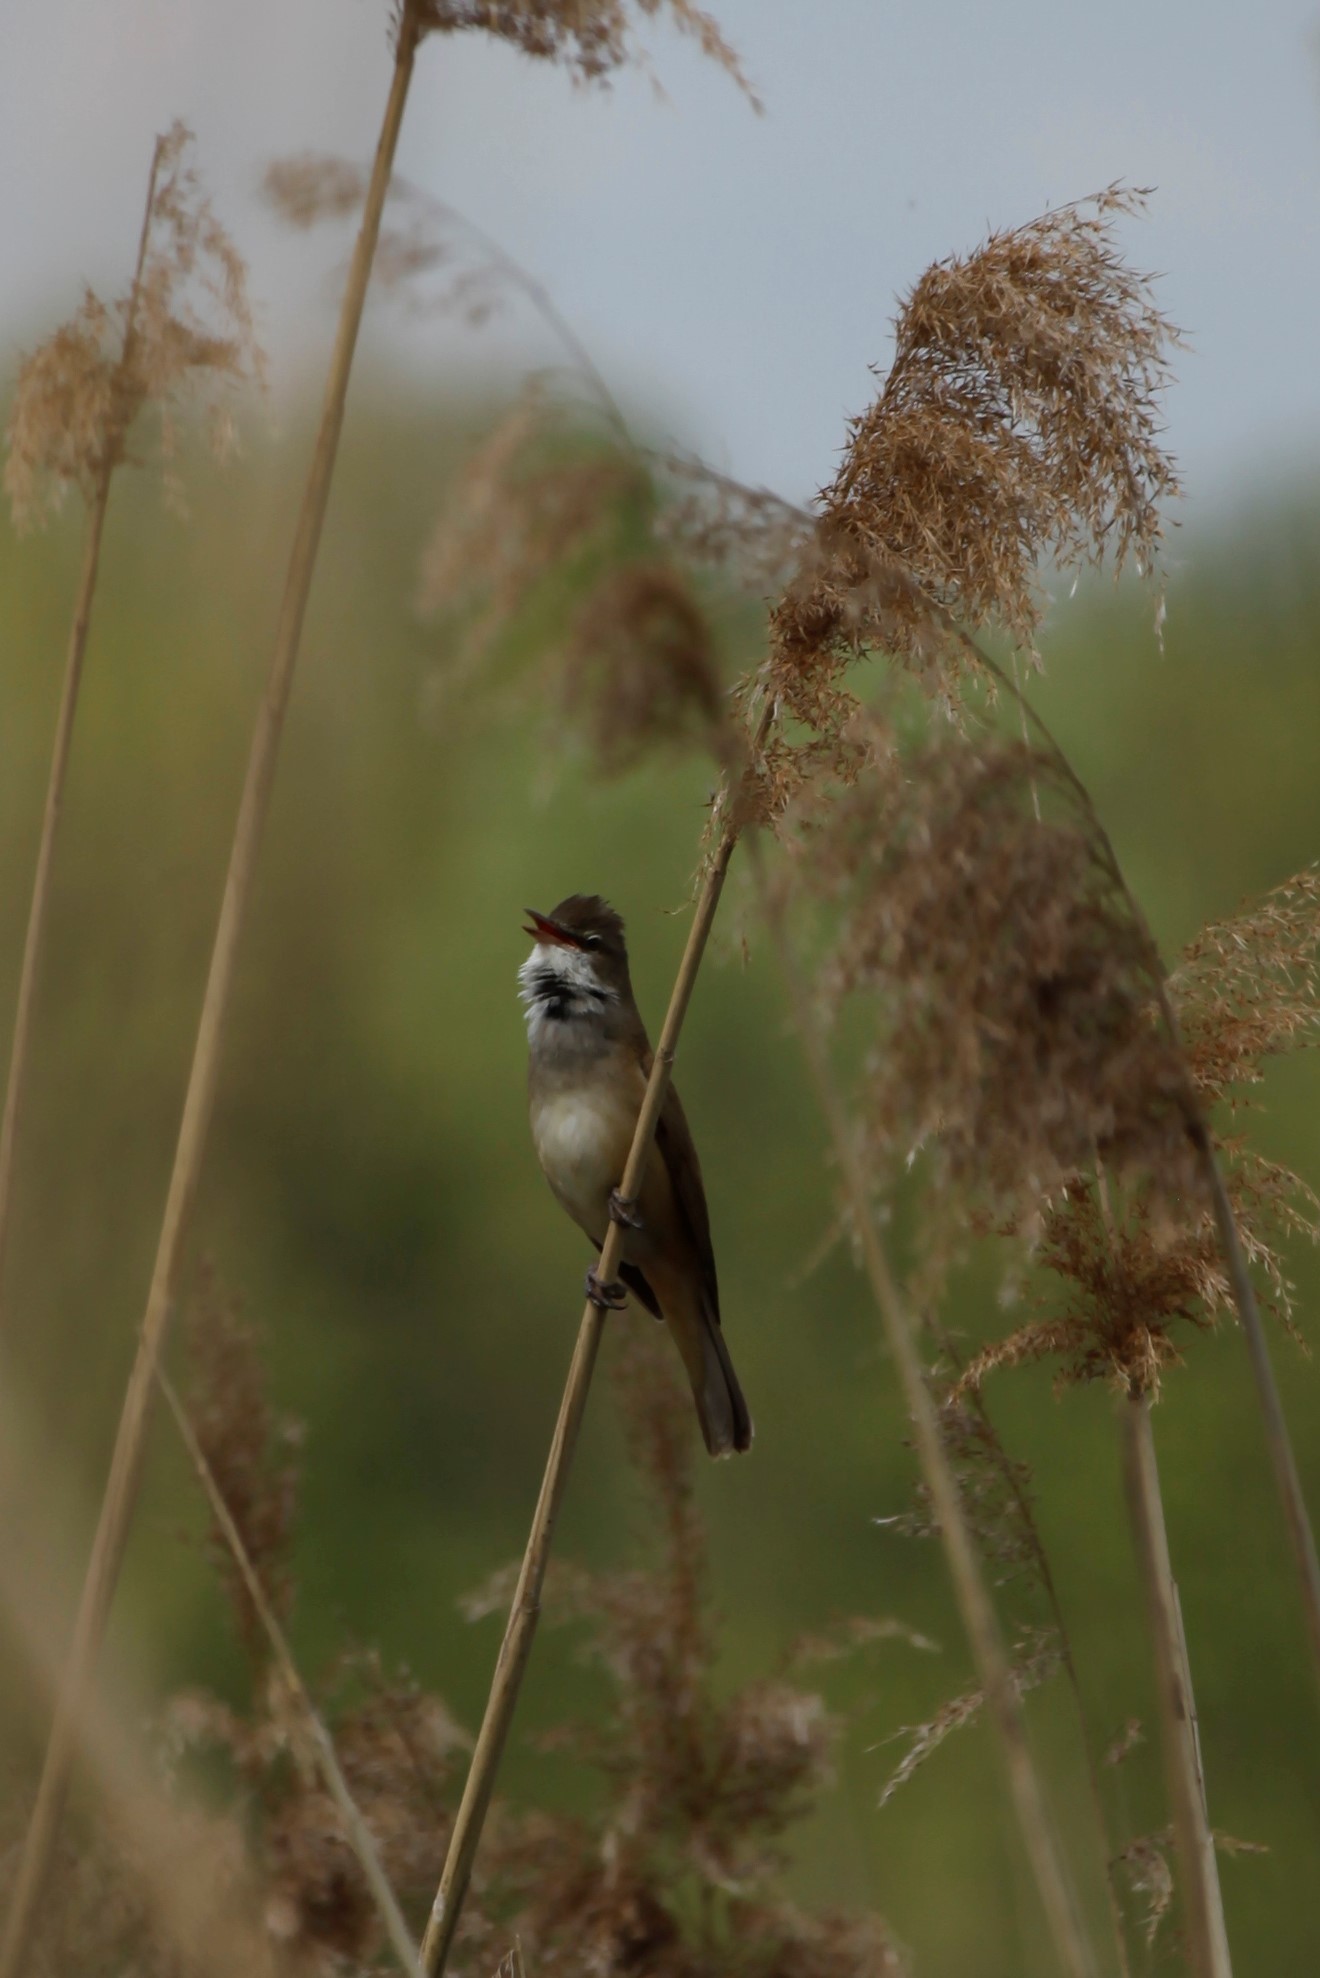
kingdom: Animalia
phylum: Chordata
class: Aves
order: Passeriformes
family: Acrocephalidae
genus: Acrocephalus
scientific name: Acrocephalus arundinaceus
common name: Great reed warbler
